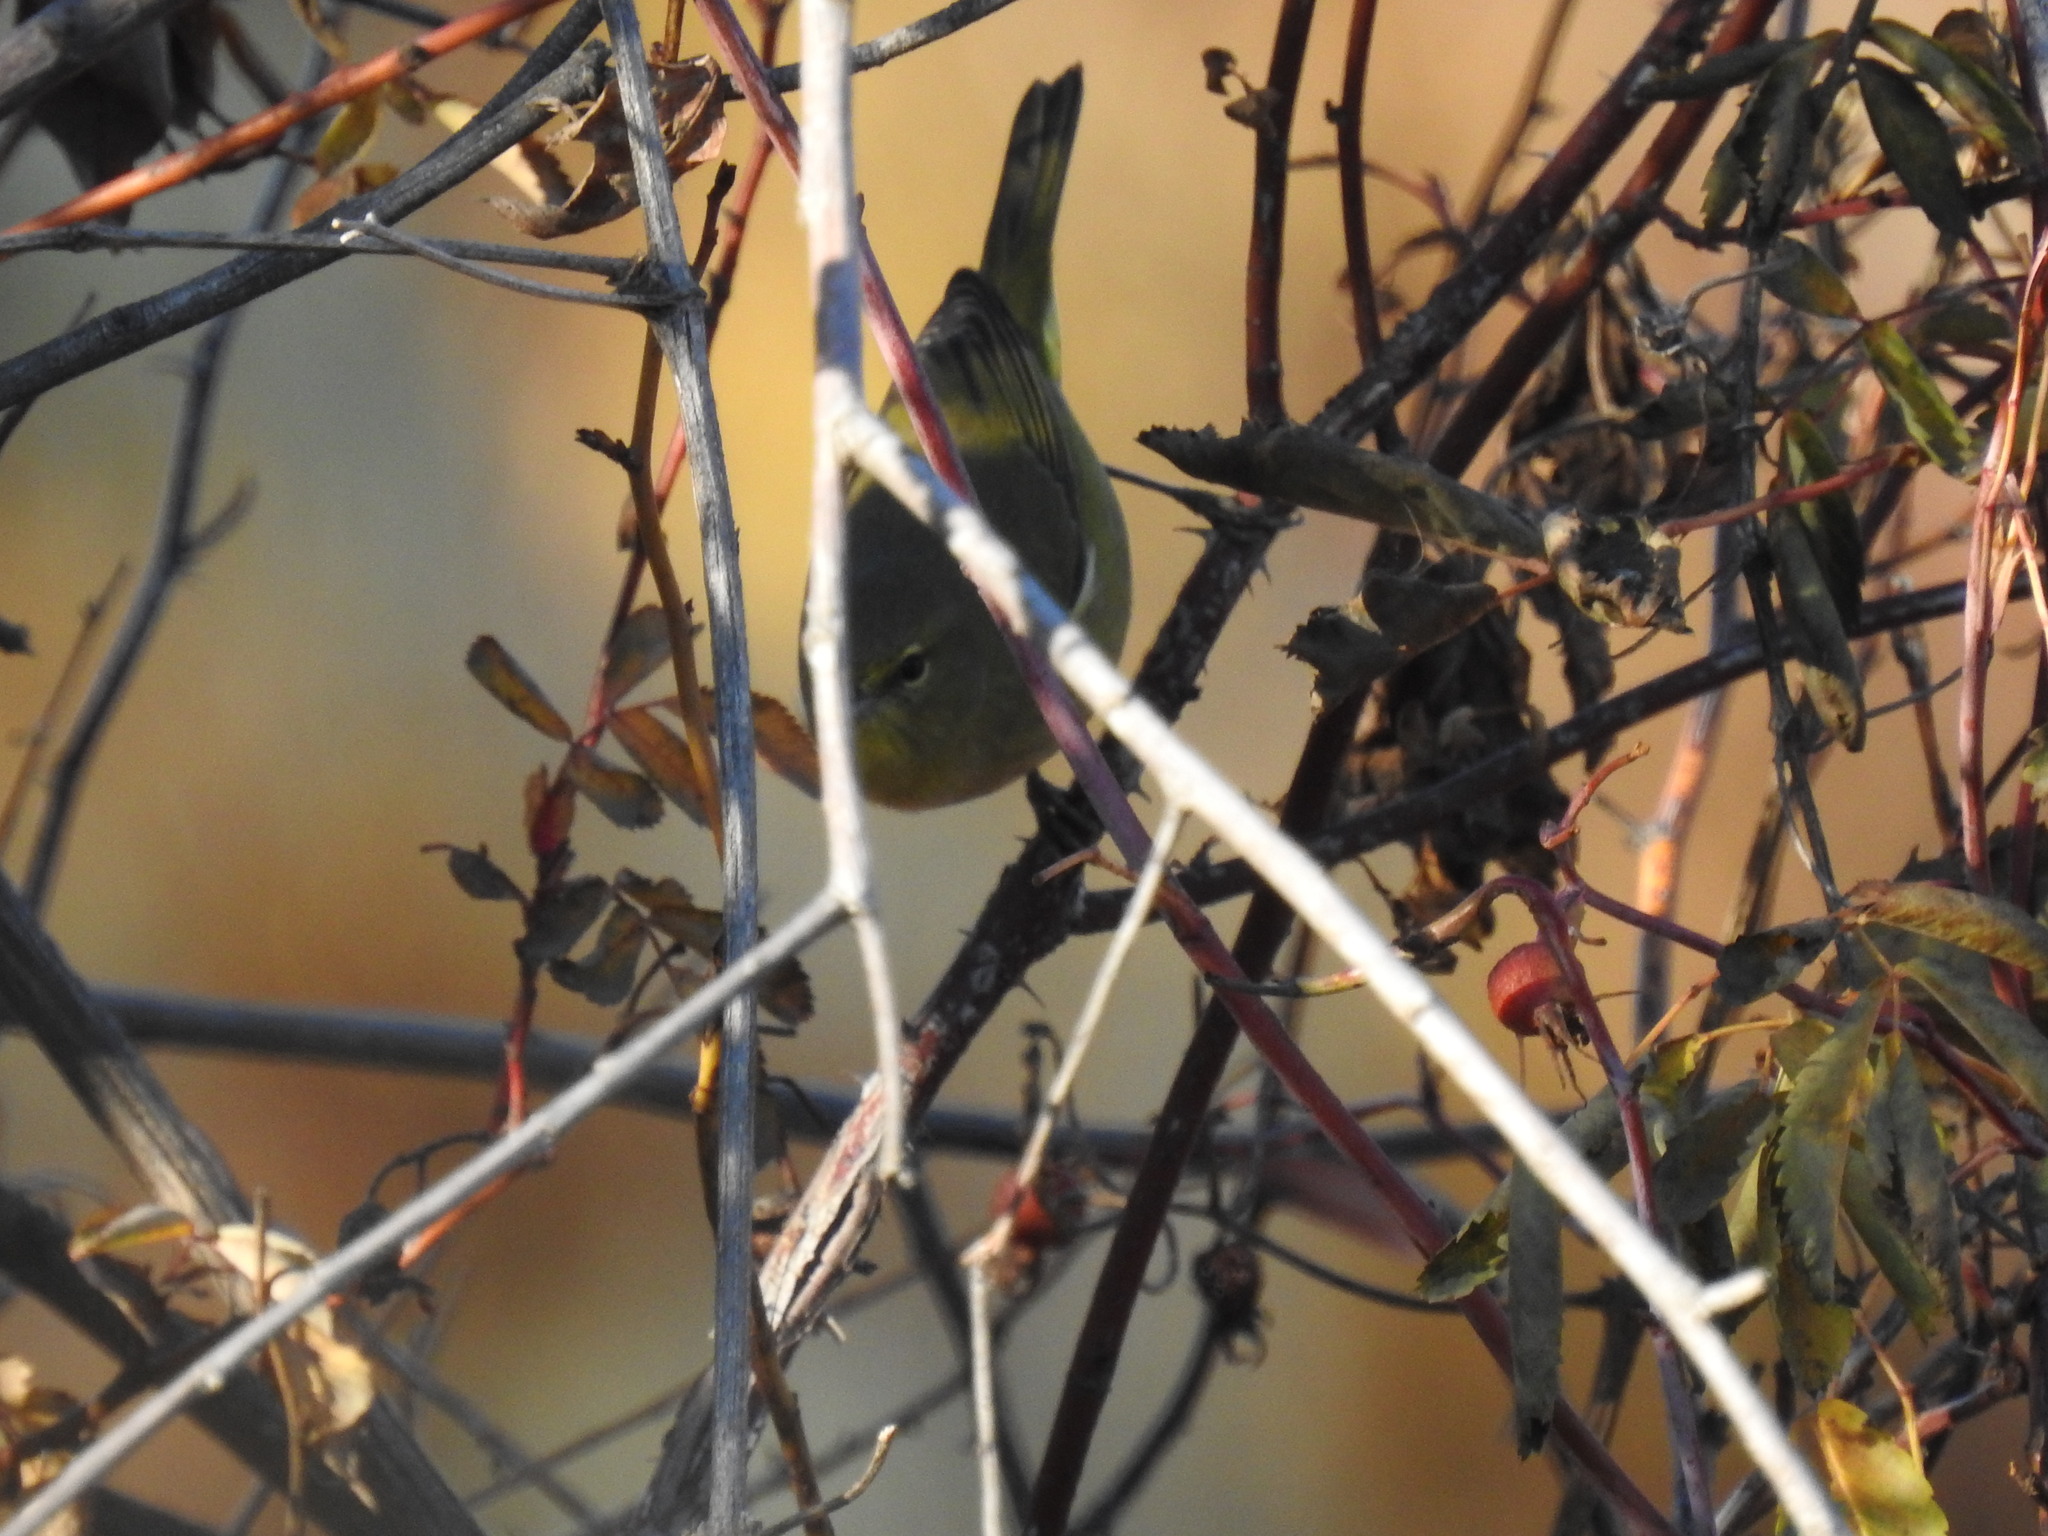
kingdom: Animalia
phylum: Chordata
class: Aves
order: Passeriformes
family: Parulidae
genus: Leiothlypis
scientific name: Leiothlypis celata
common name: Orange-crowned warbler
